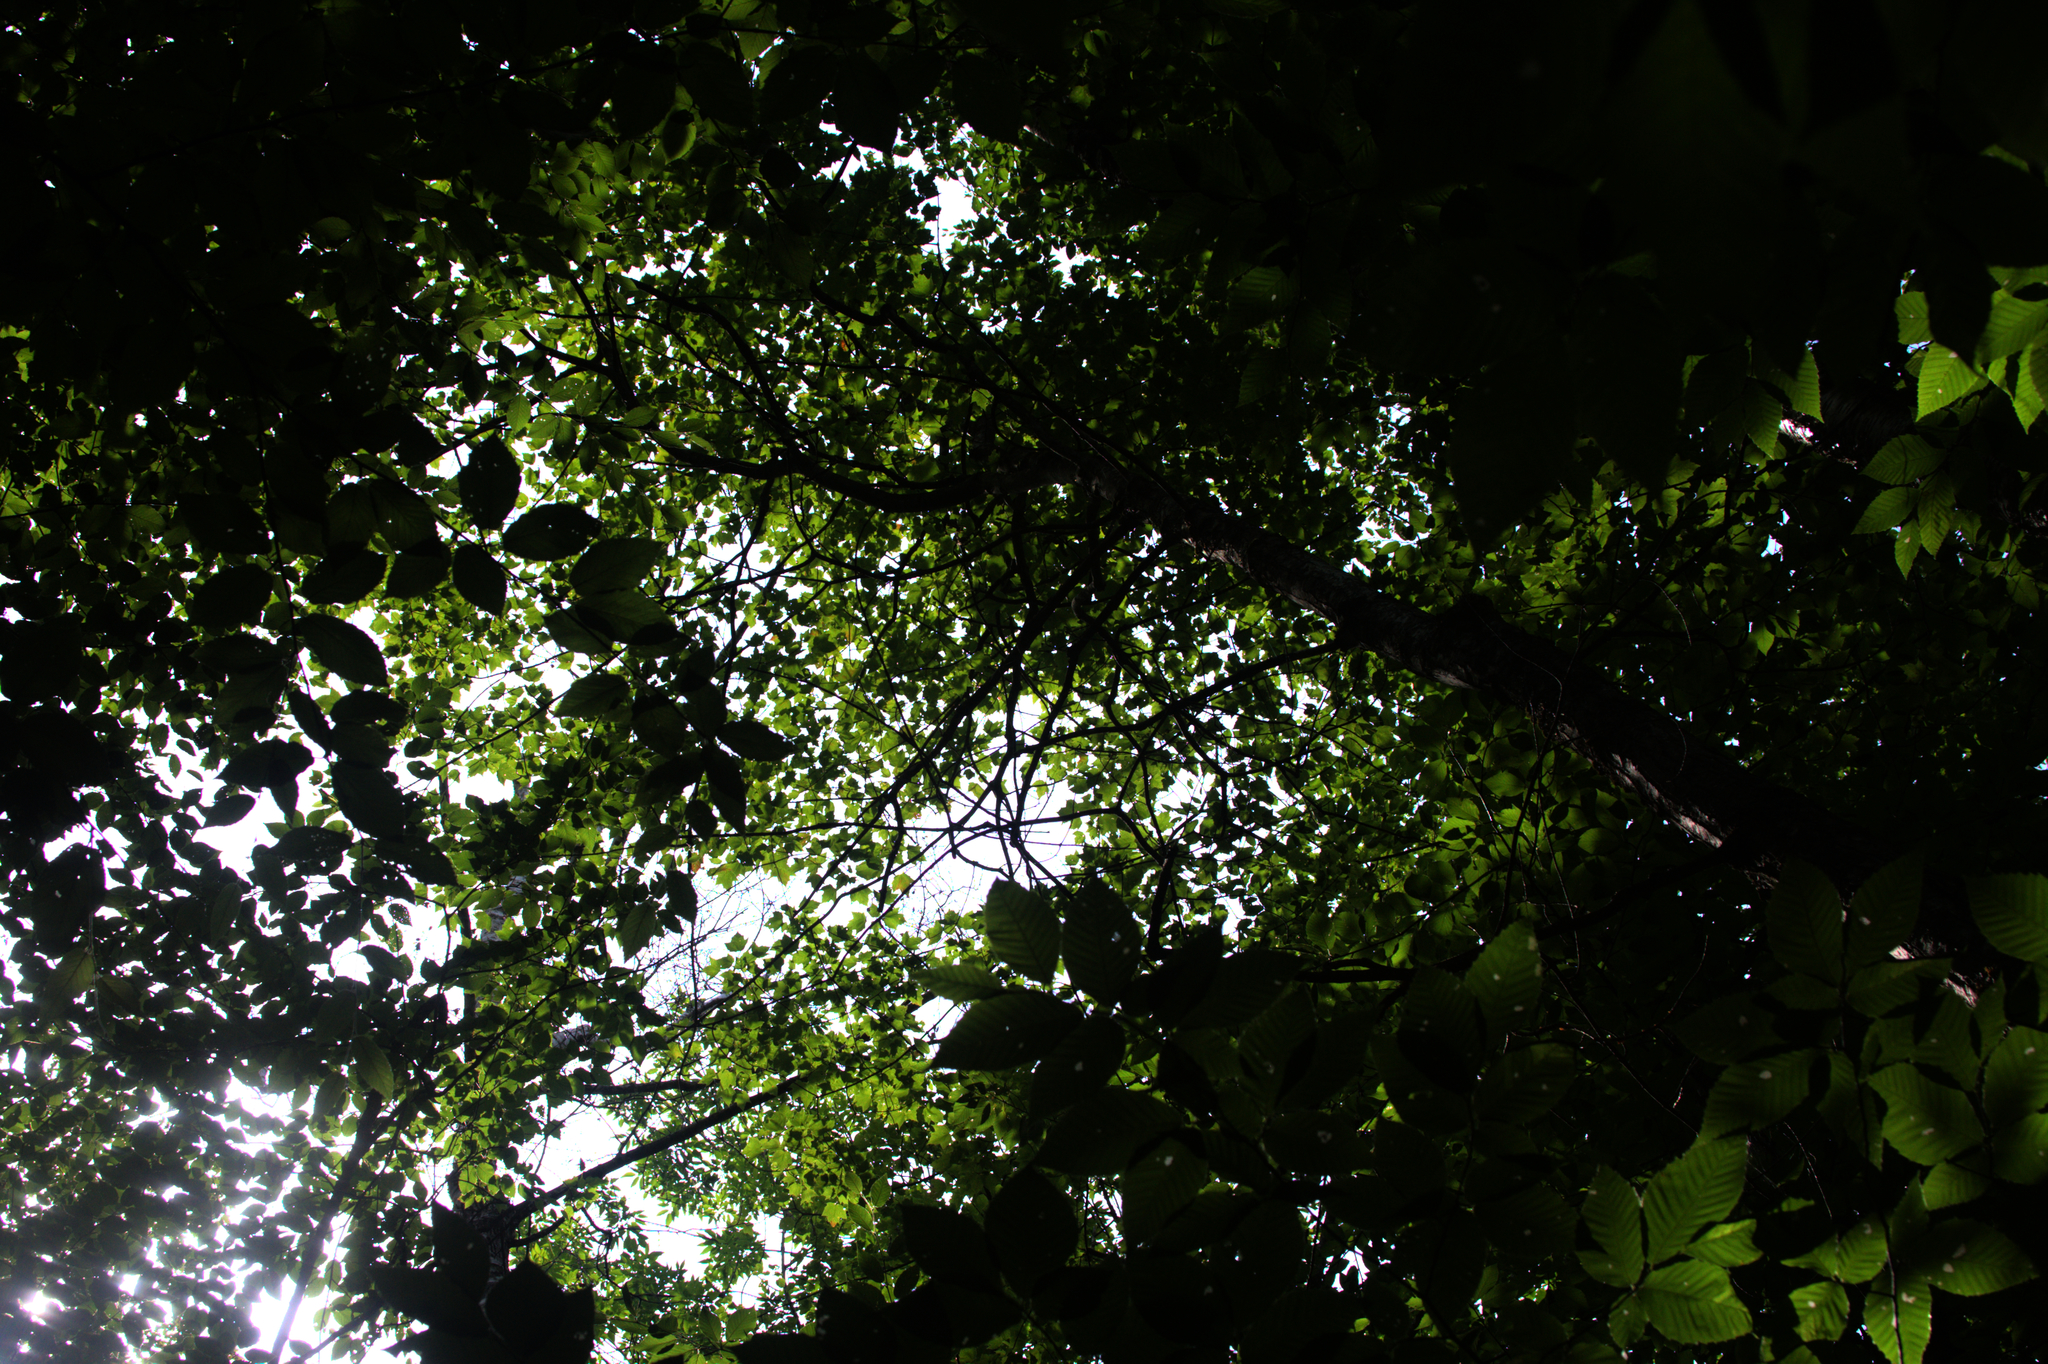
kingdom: Plantae
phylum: Tracheophyta
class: Magnoliopsida
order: Fagales
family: Fagaceae
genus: Fagus
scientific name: Fagus grandifolia
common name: American beech
